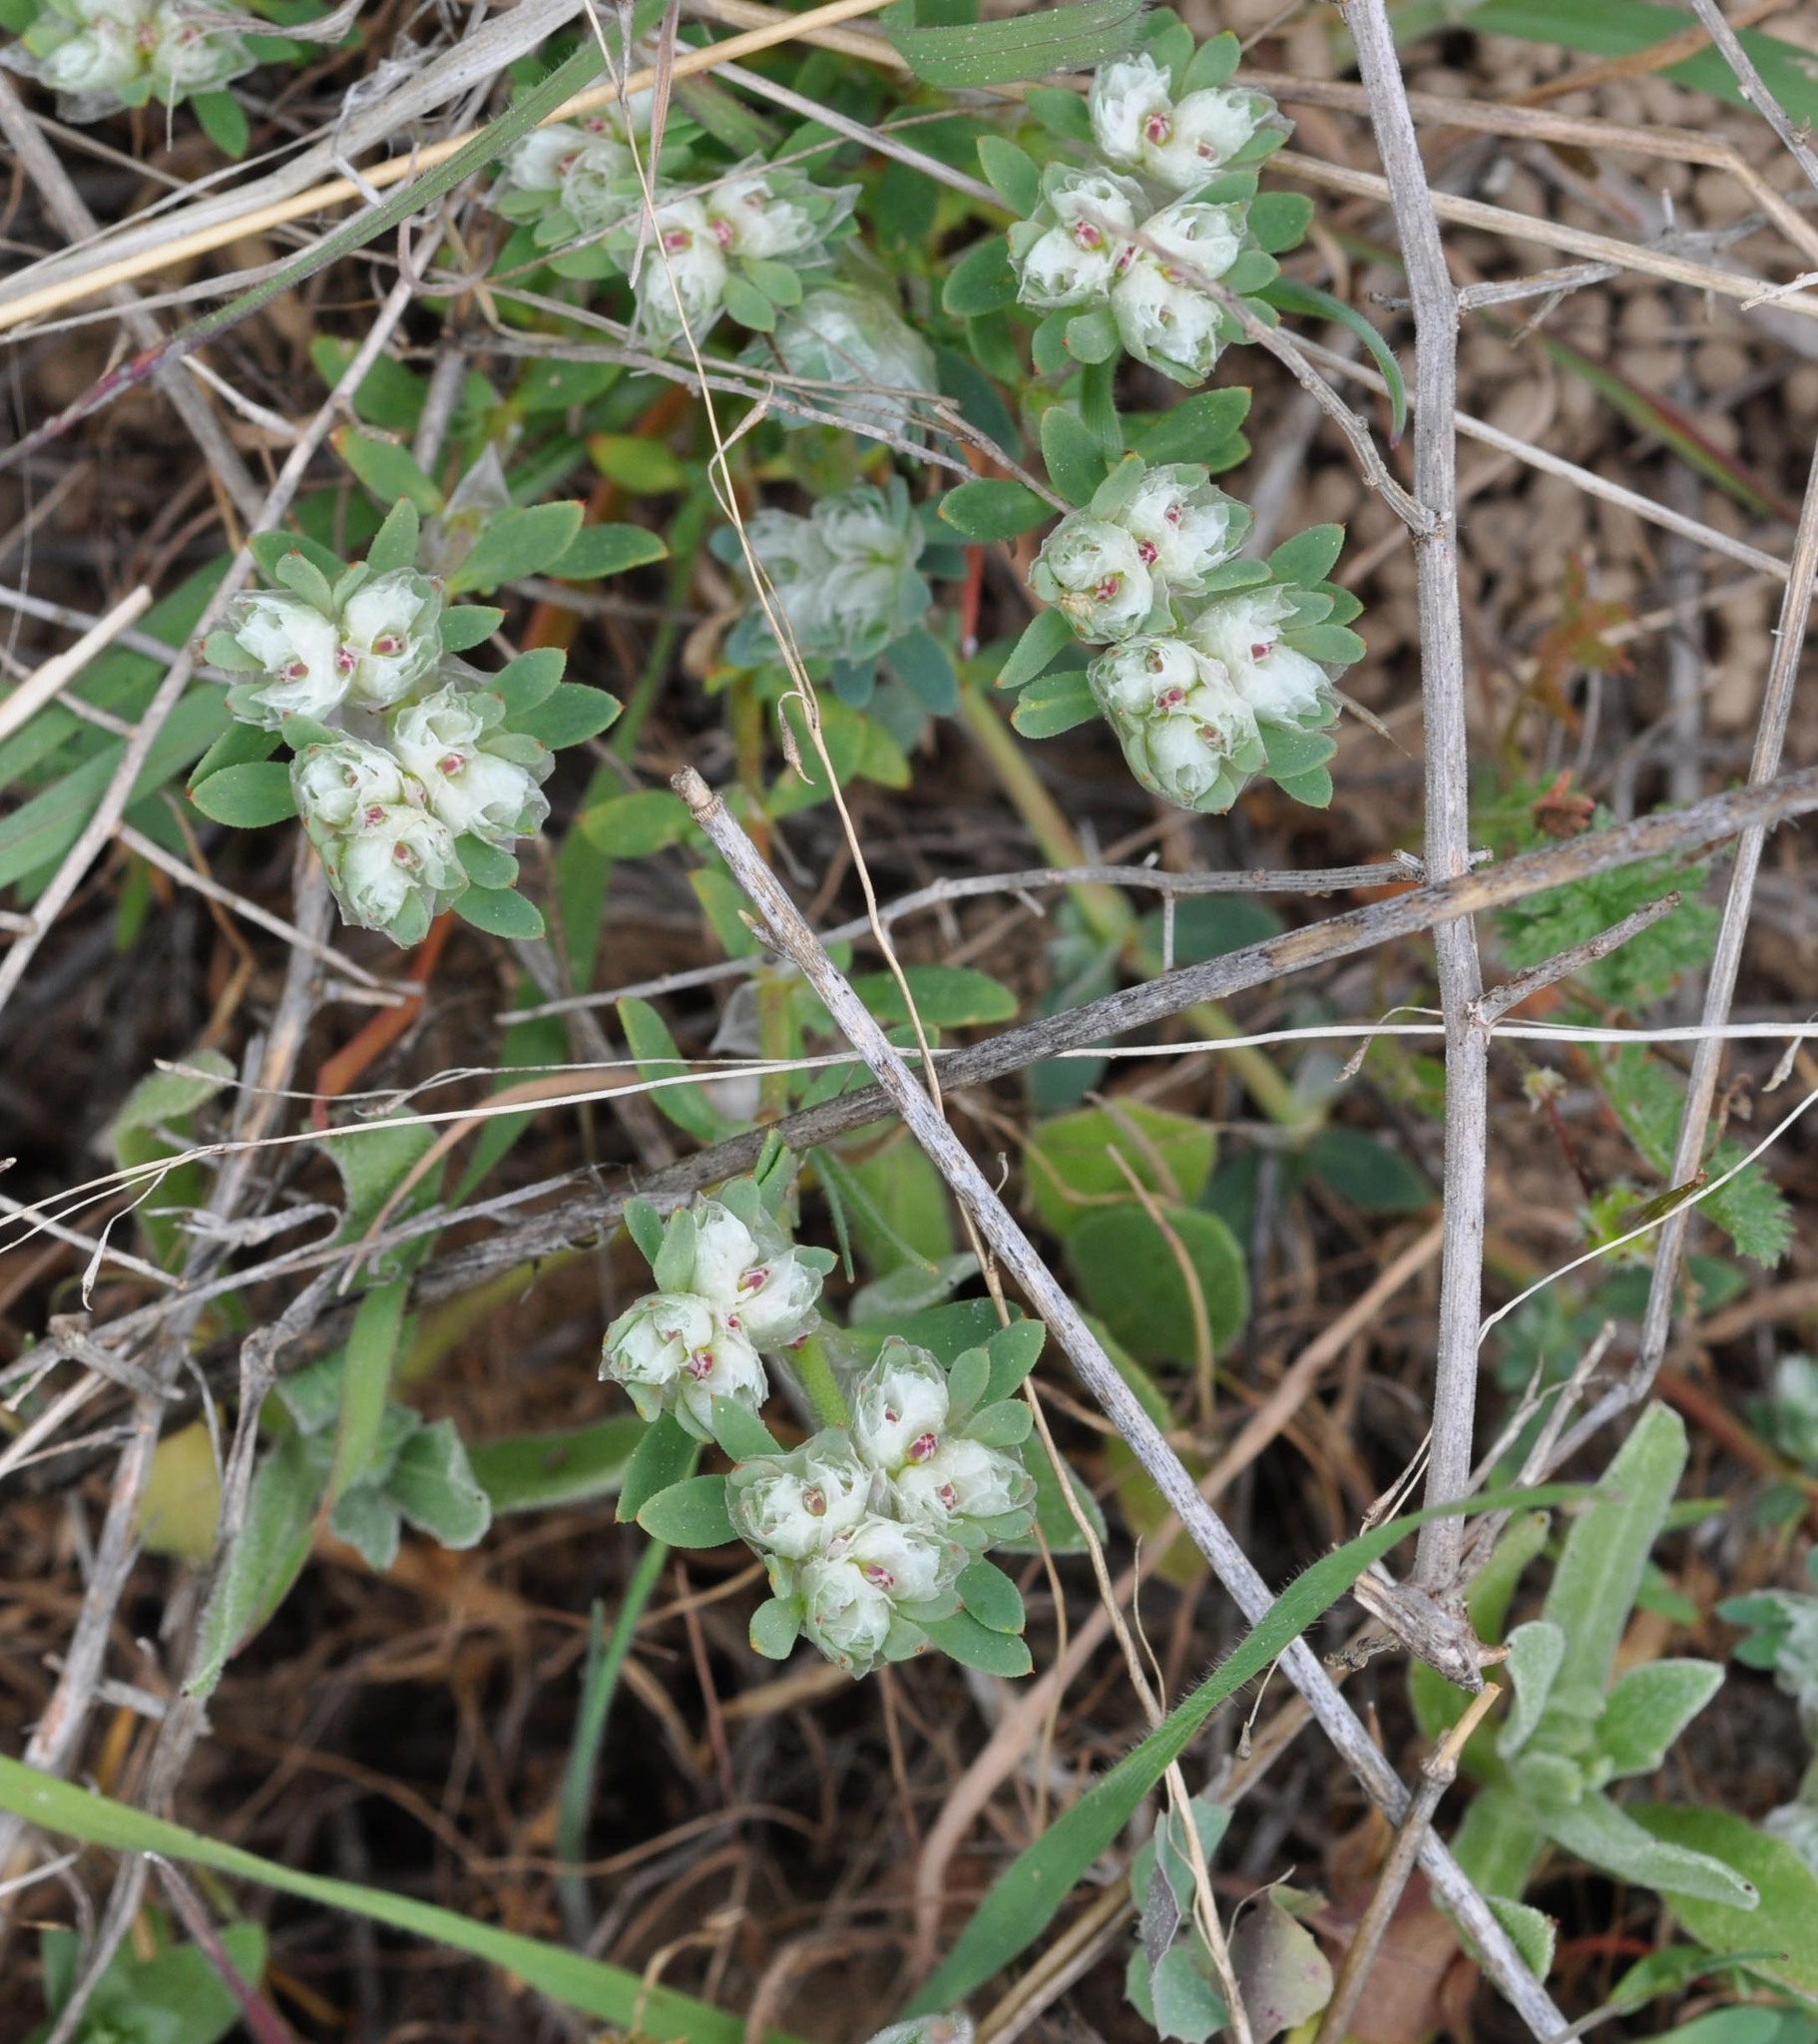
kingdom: Plantae
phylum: Tracheophyta
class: Magnoliopsida
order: Caryophyllales
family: Caryophyllaceae
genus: Paronychia
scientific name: Paronychia argentea
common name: Silver nailroot
